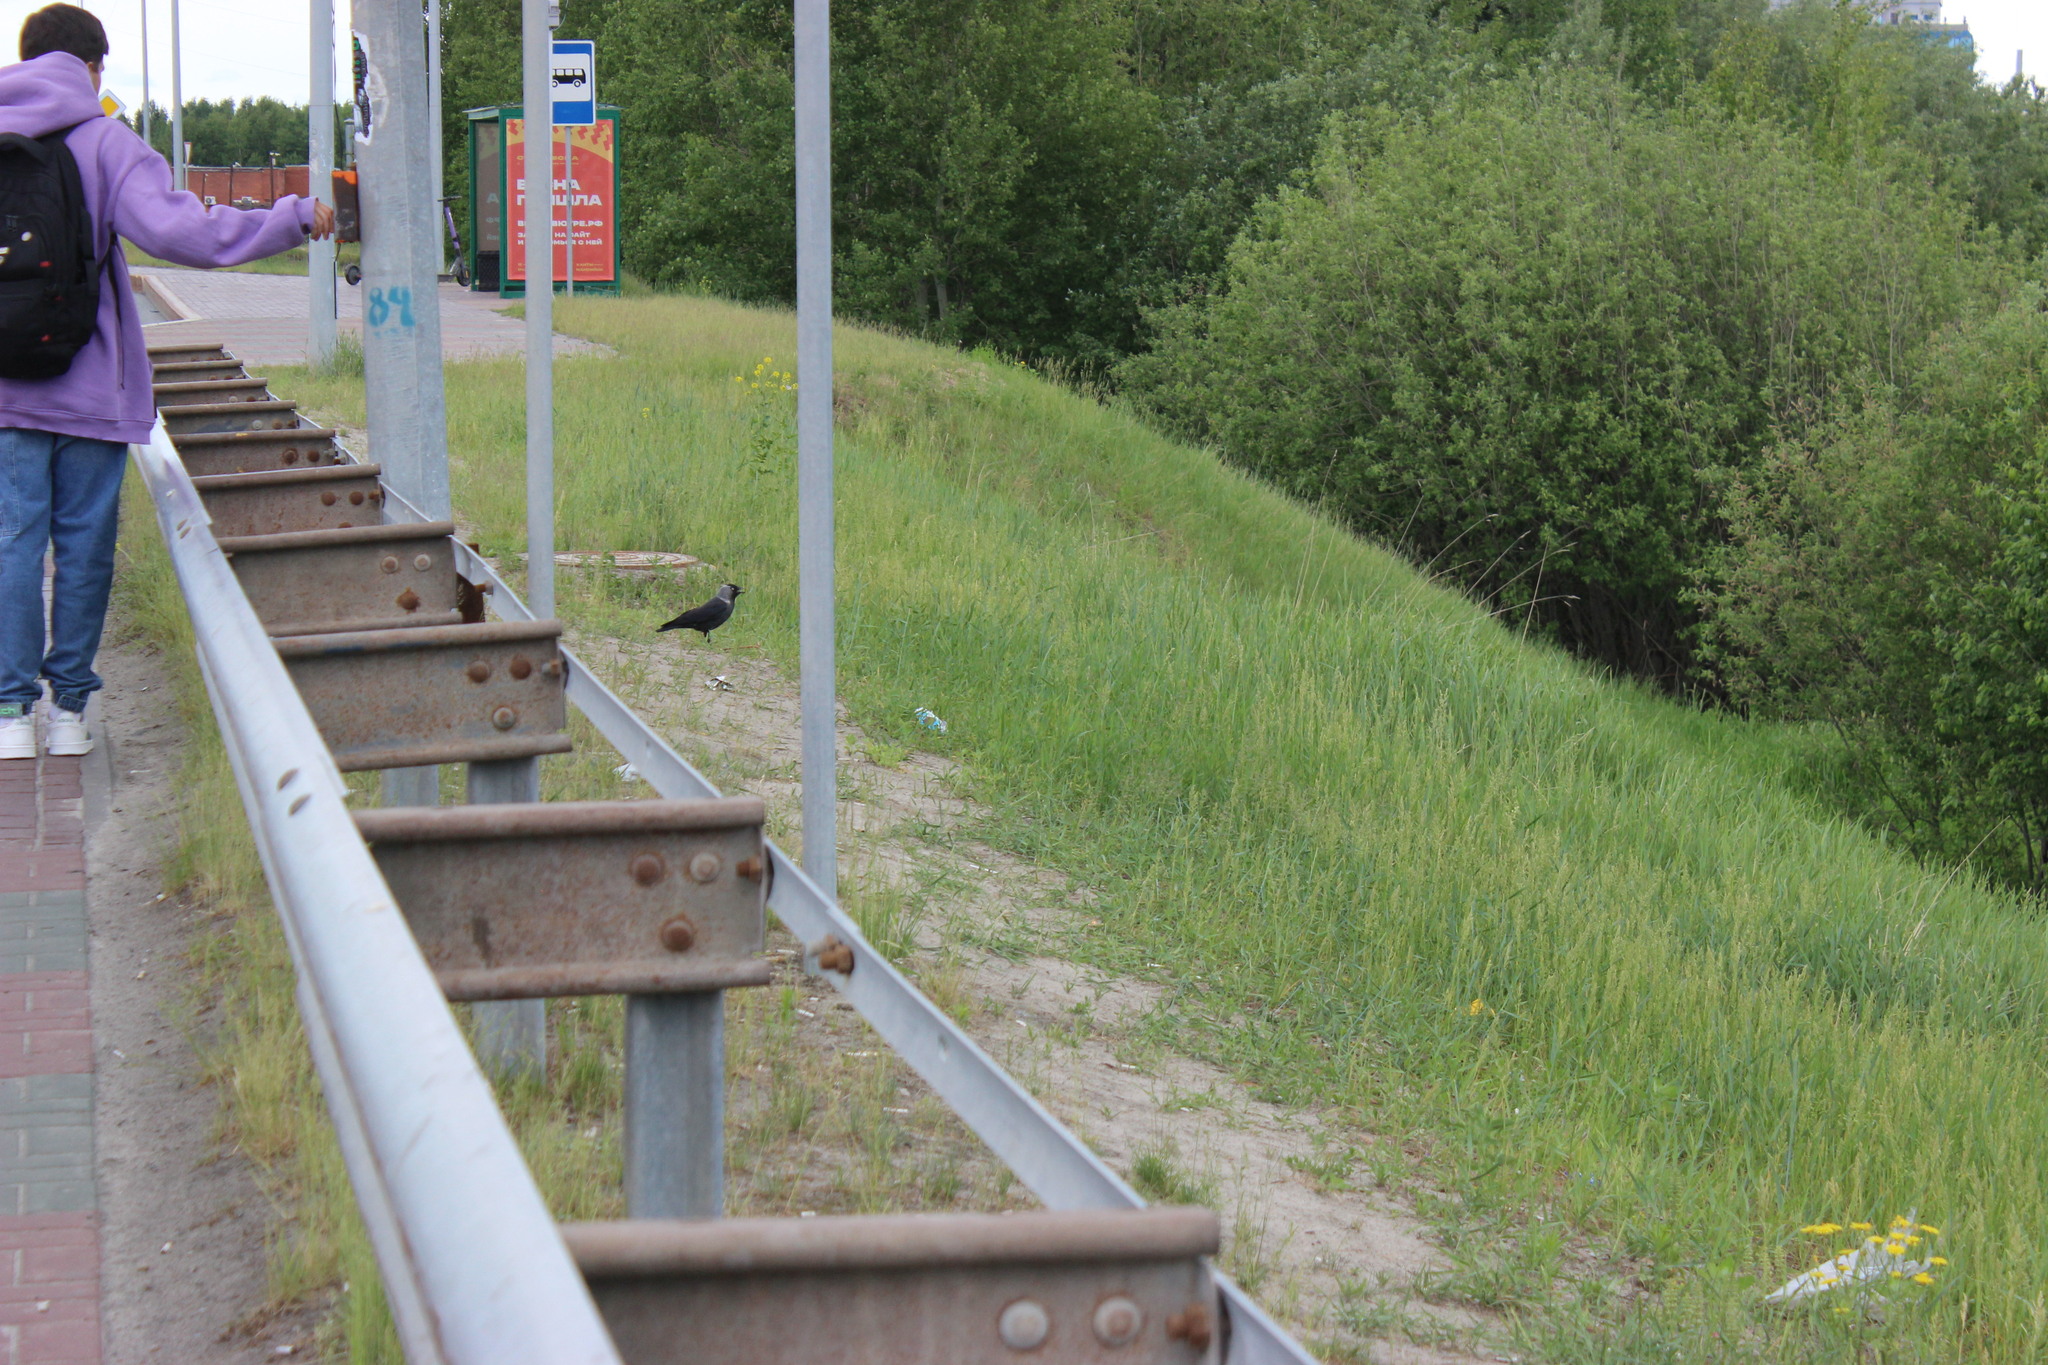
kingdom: Animalia
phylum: Chordata
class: Aves
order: Passeriformes
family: Corvidae
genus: Coloeus
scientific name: Coloeus monedula
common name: Western jackdaw
